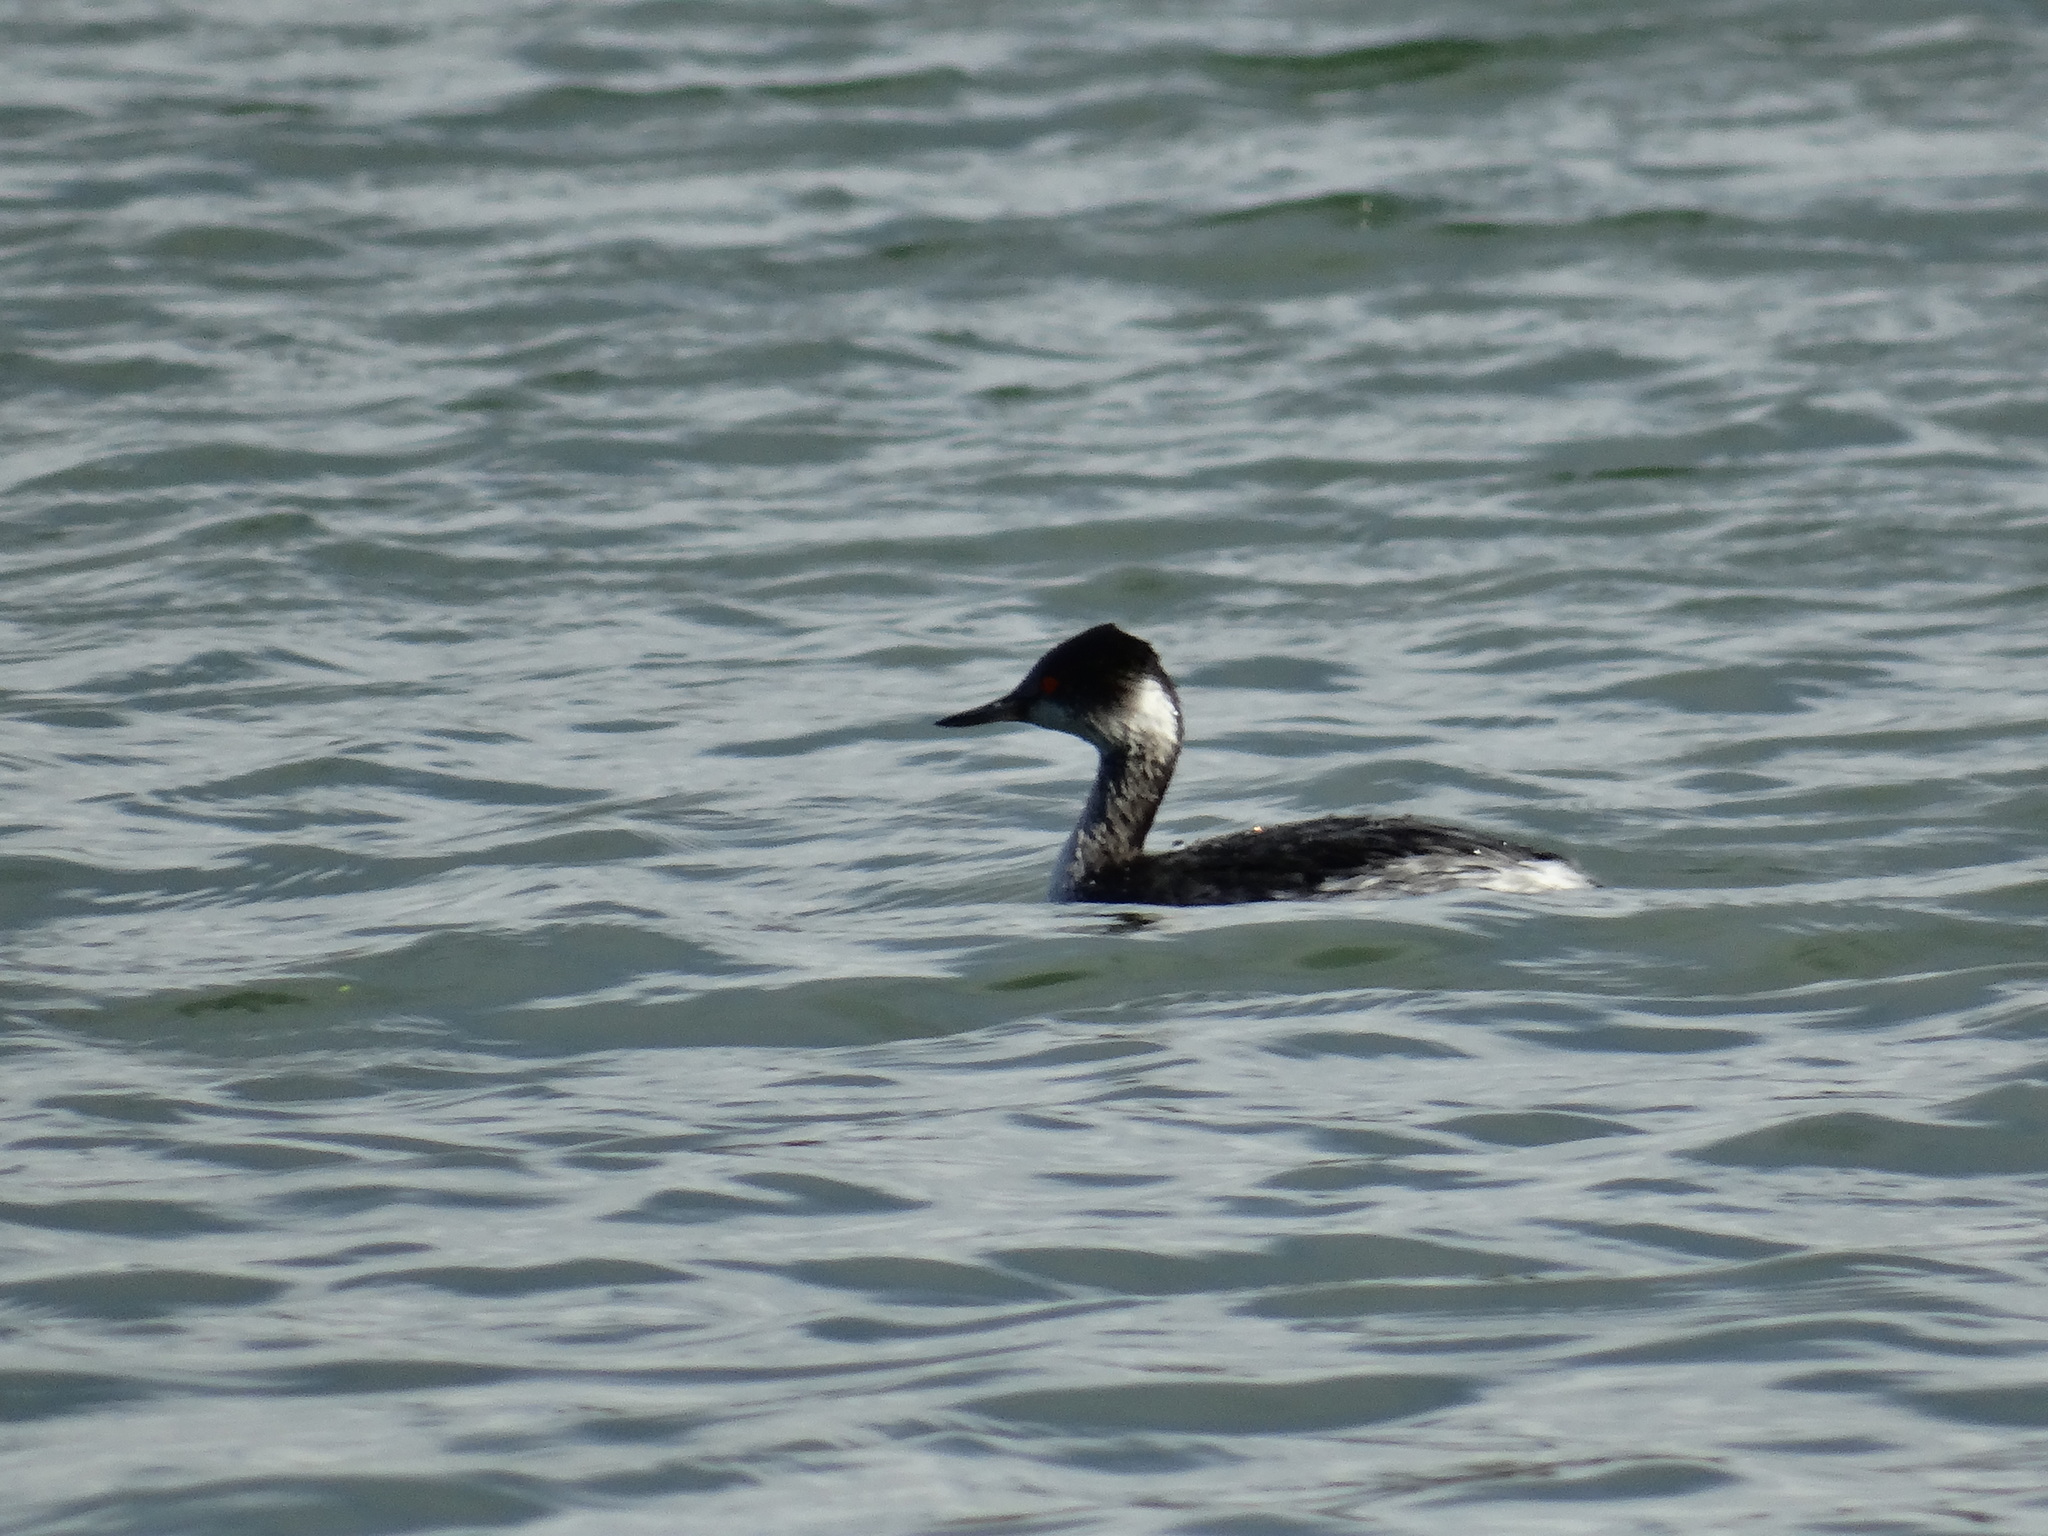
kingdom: Animalia
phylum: Chordata
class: Aves
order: Podicipediformes
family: Podicipedidae
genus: Podiceps
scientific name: Podiceps nigricollis
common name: Black-necked grebe
